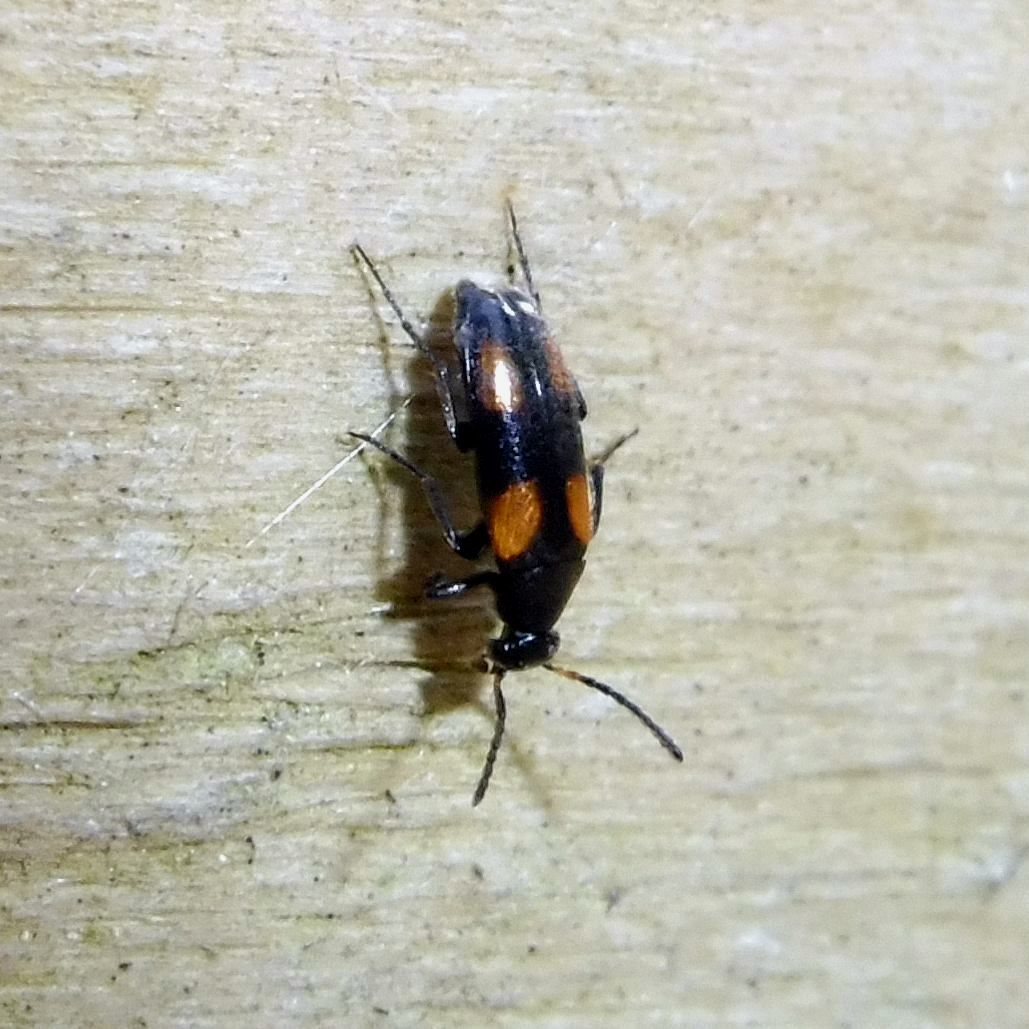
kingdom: Animalia
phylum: Arthropoda
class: Insecta
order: Coleoptera
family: Scraptiidae
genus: Anaspis
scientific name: Anaspis fasciata
